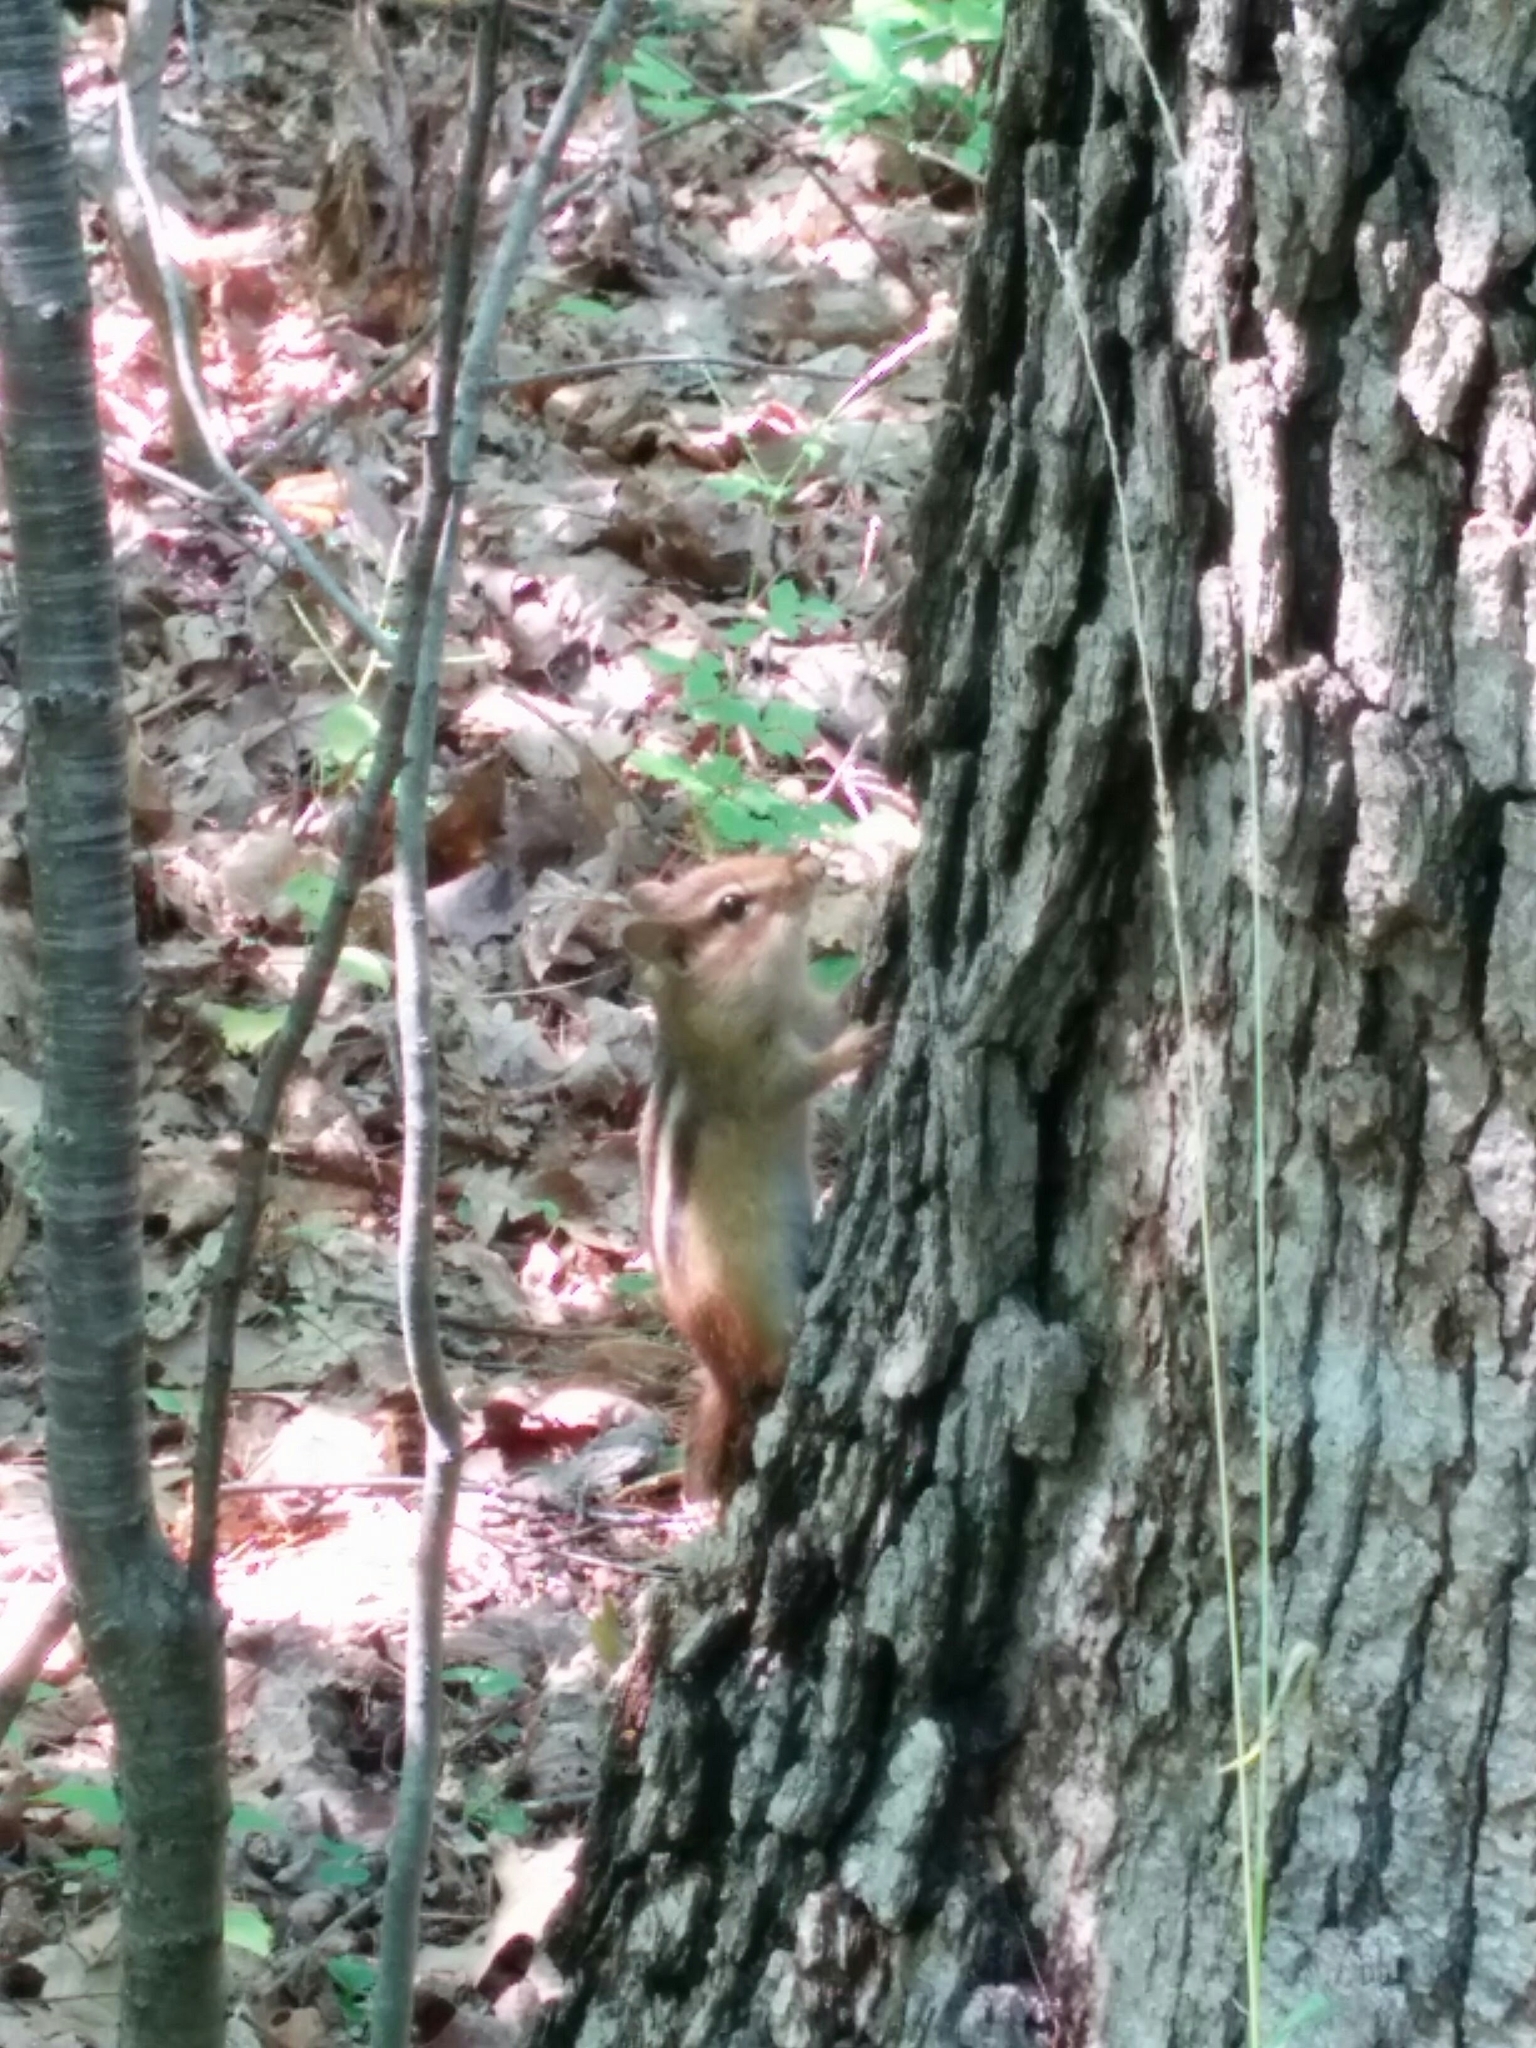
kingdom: Animalia
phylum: Chordata
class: Mammalia
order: Rodentia
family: Sciuridae
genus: Tamias
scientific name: Tamias striatus
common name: Eastern chipmunk
